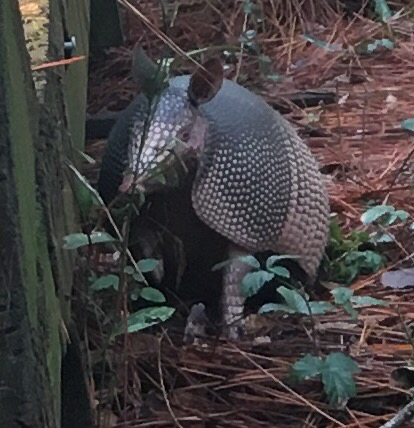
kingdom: Animalia
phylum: Chordata
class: Mammalia
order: Cingulata
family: Dasypodidae
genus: Dasypus
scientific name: Dasypus novemcinctus
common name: Nine-banded armadillo
